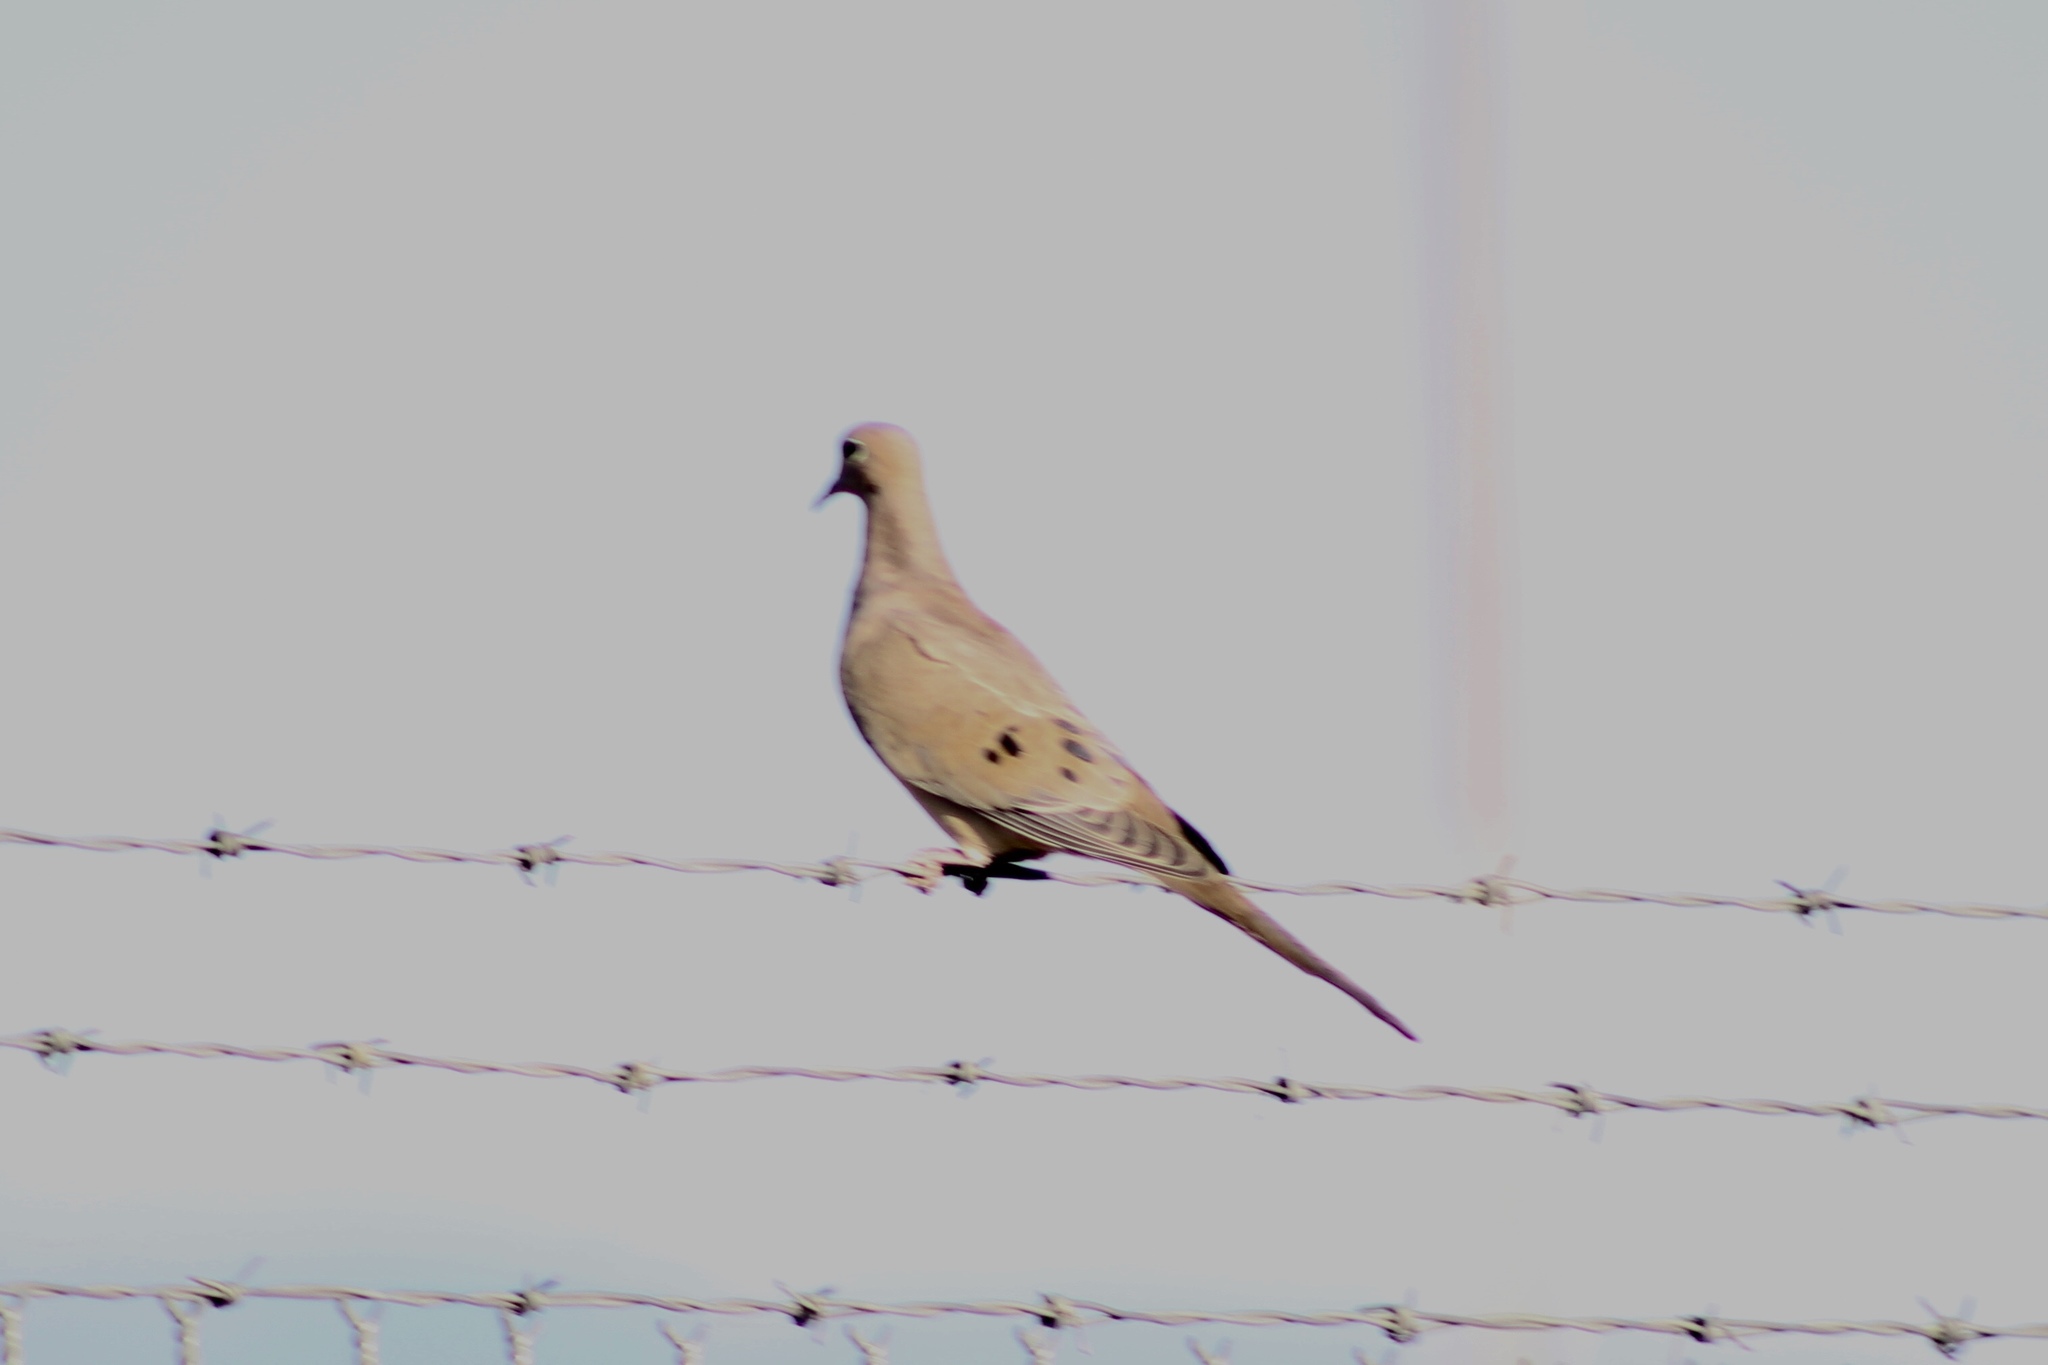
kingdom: Animalia
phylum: Chordata
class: Aves
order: Columbiformes
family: Columbidae
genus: Zenaida
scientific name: Zenaida macroura
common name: Mourning dove
